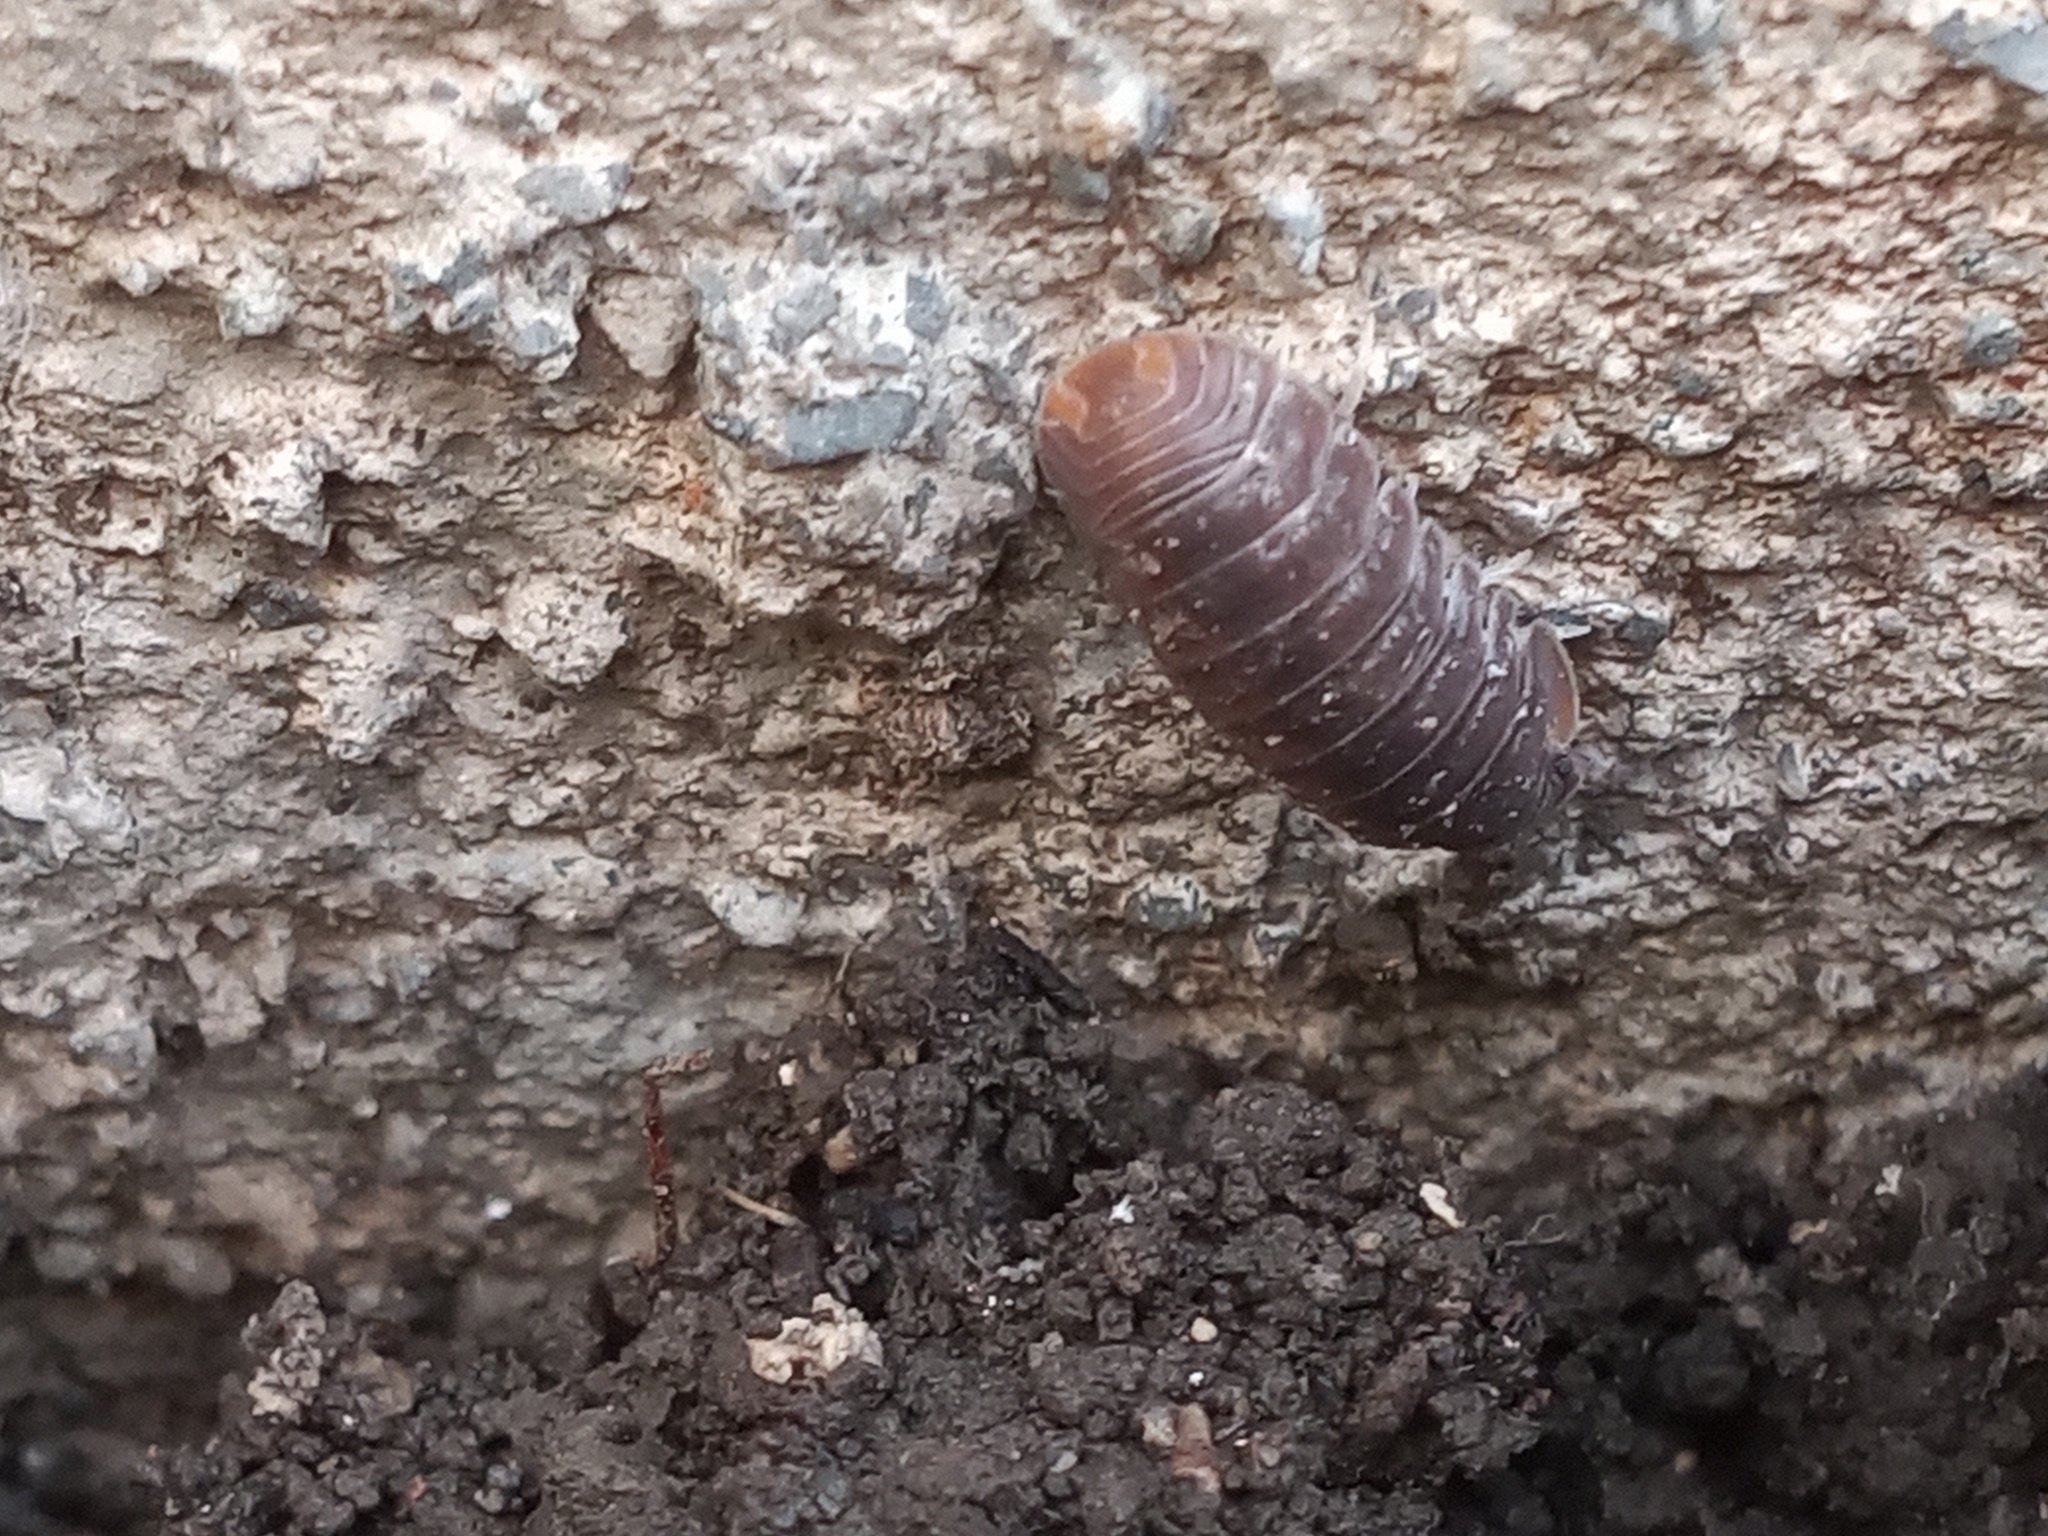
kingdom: Animalia
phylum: Arthropoda
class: Malacostraca
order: Isopoda
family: Armadillidae
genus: Cubaris
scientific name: Cubaris murina
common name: Pillbug
